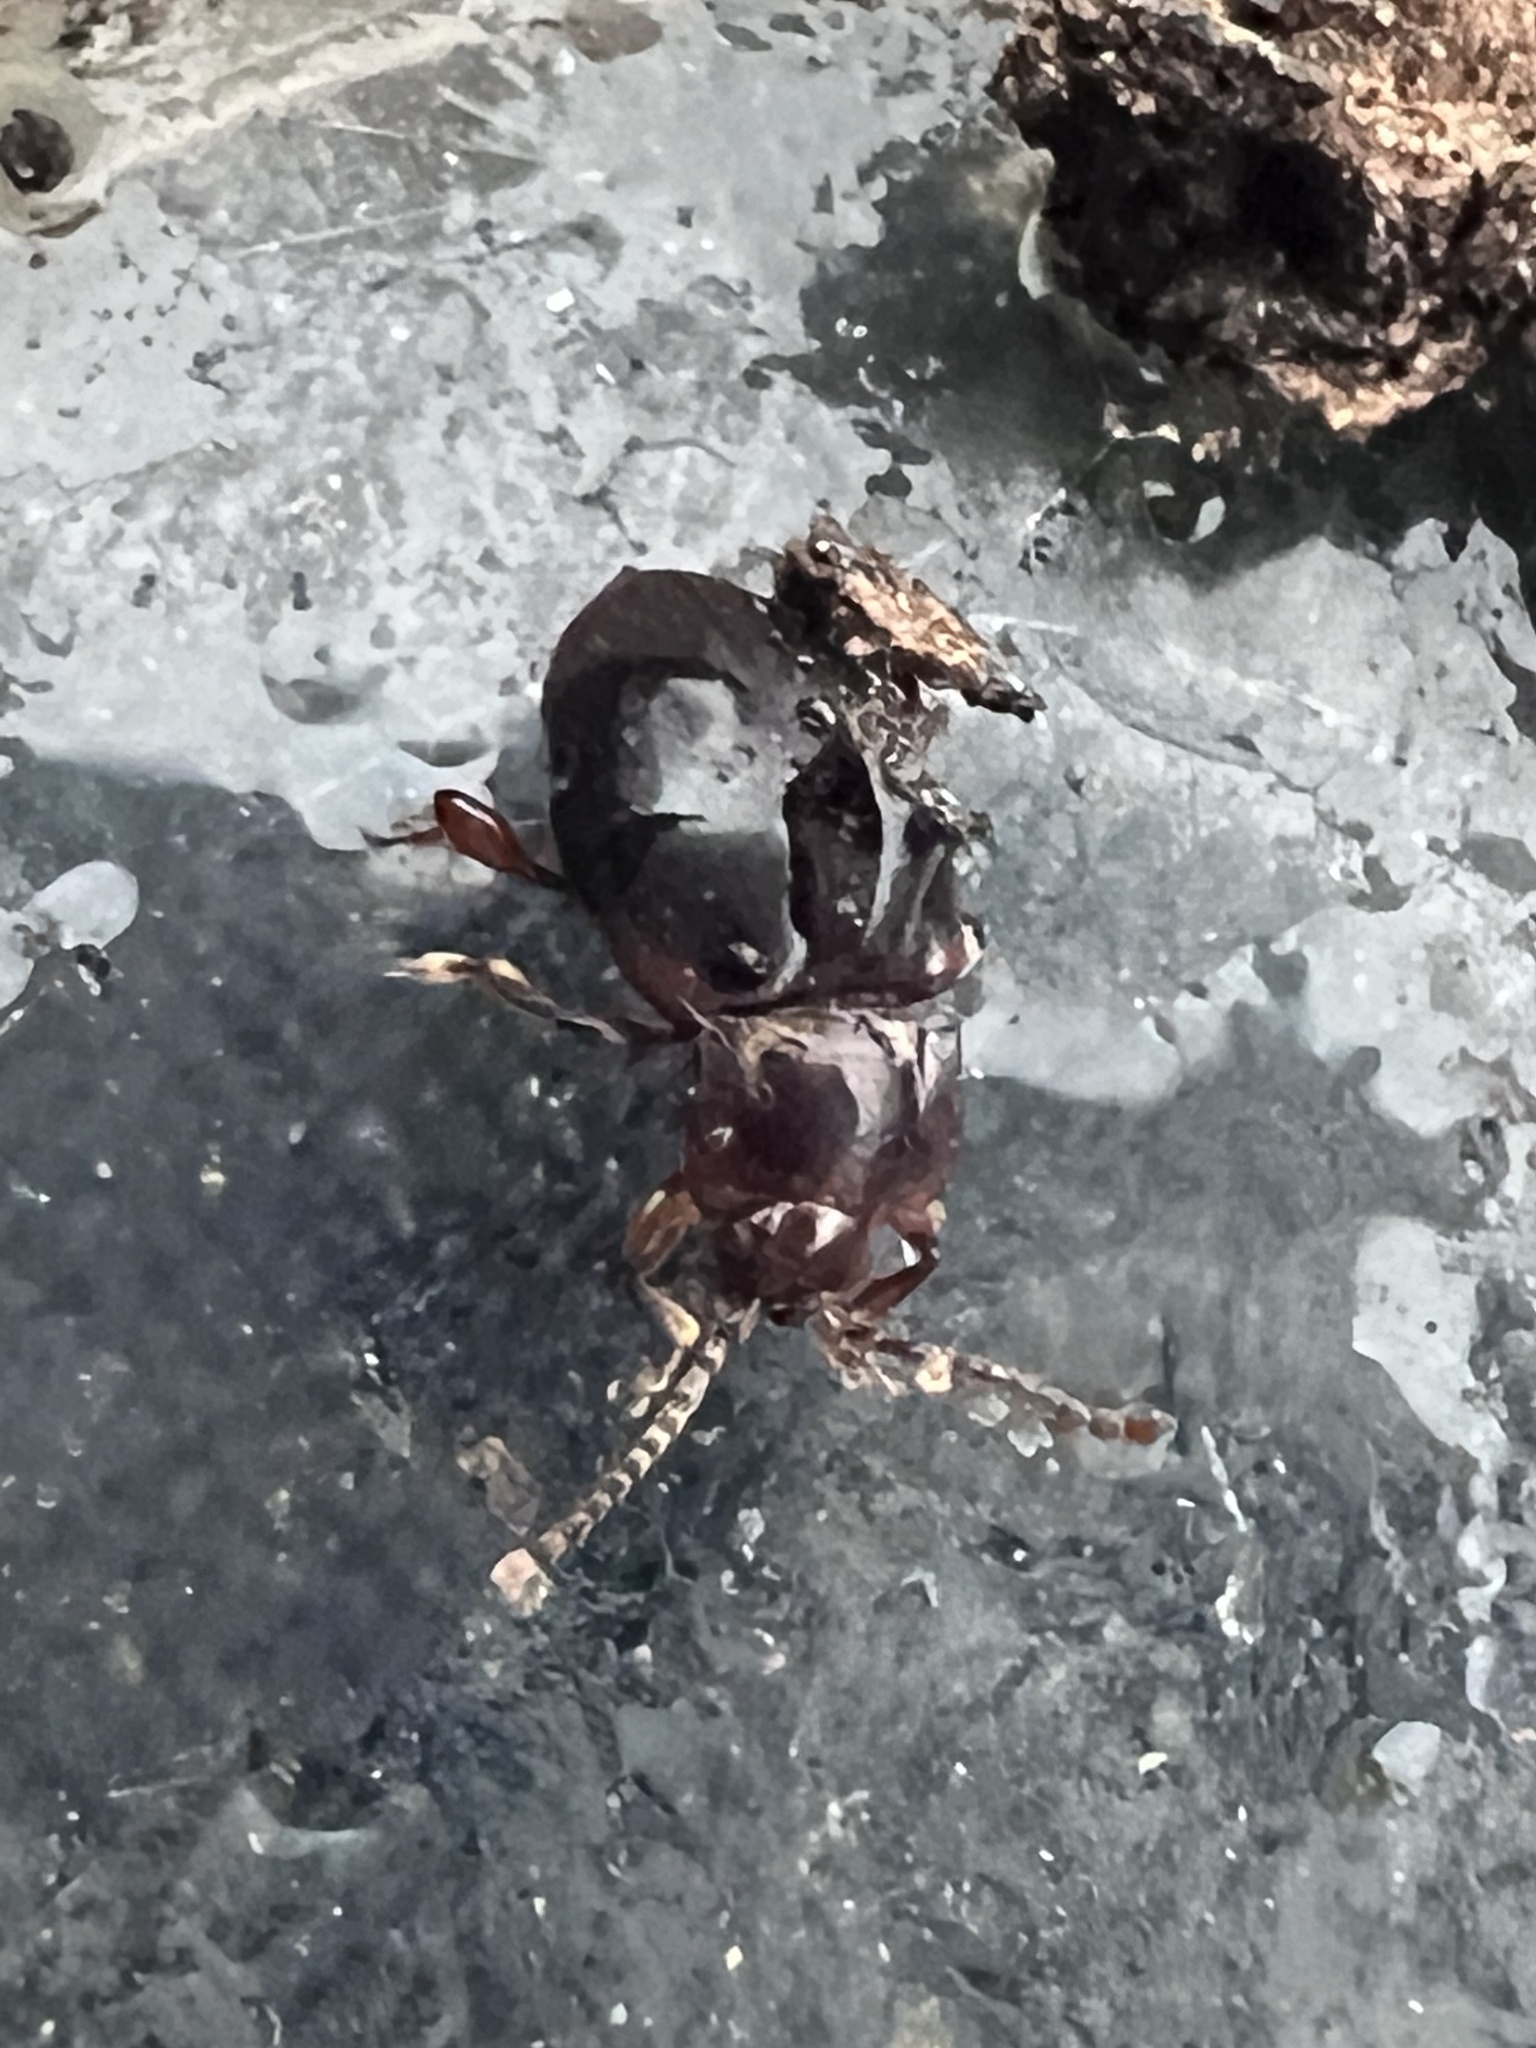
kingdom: Animalia
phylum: Arthropoda
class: Insecta
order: Coleoptera
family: Endomychidae
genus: Lycoperdina
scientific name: Lycoperdina ferruginea
